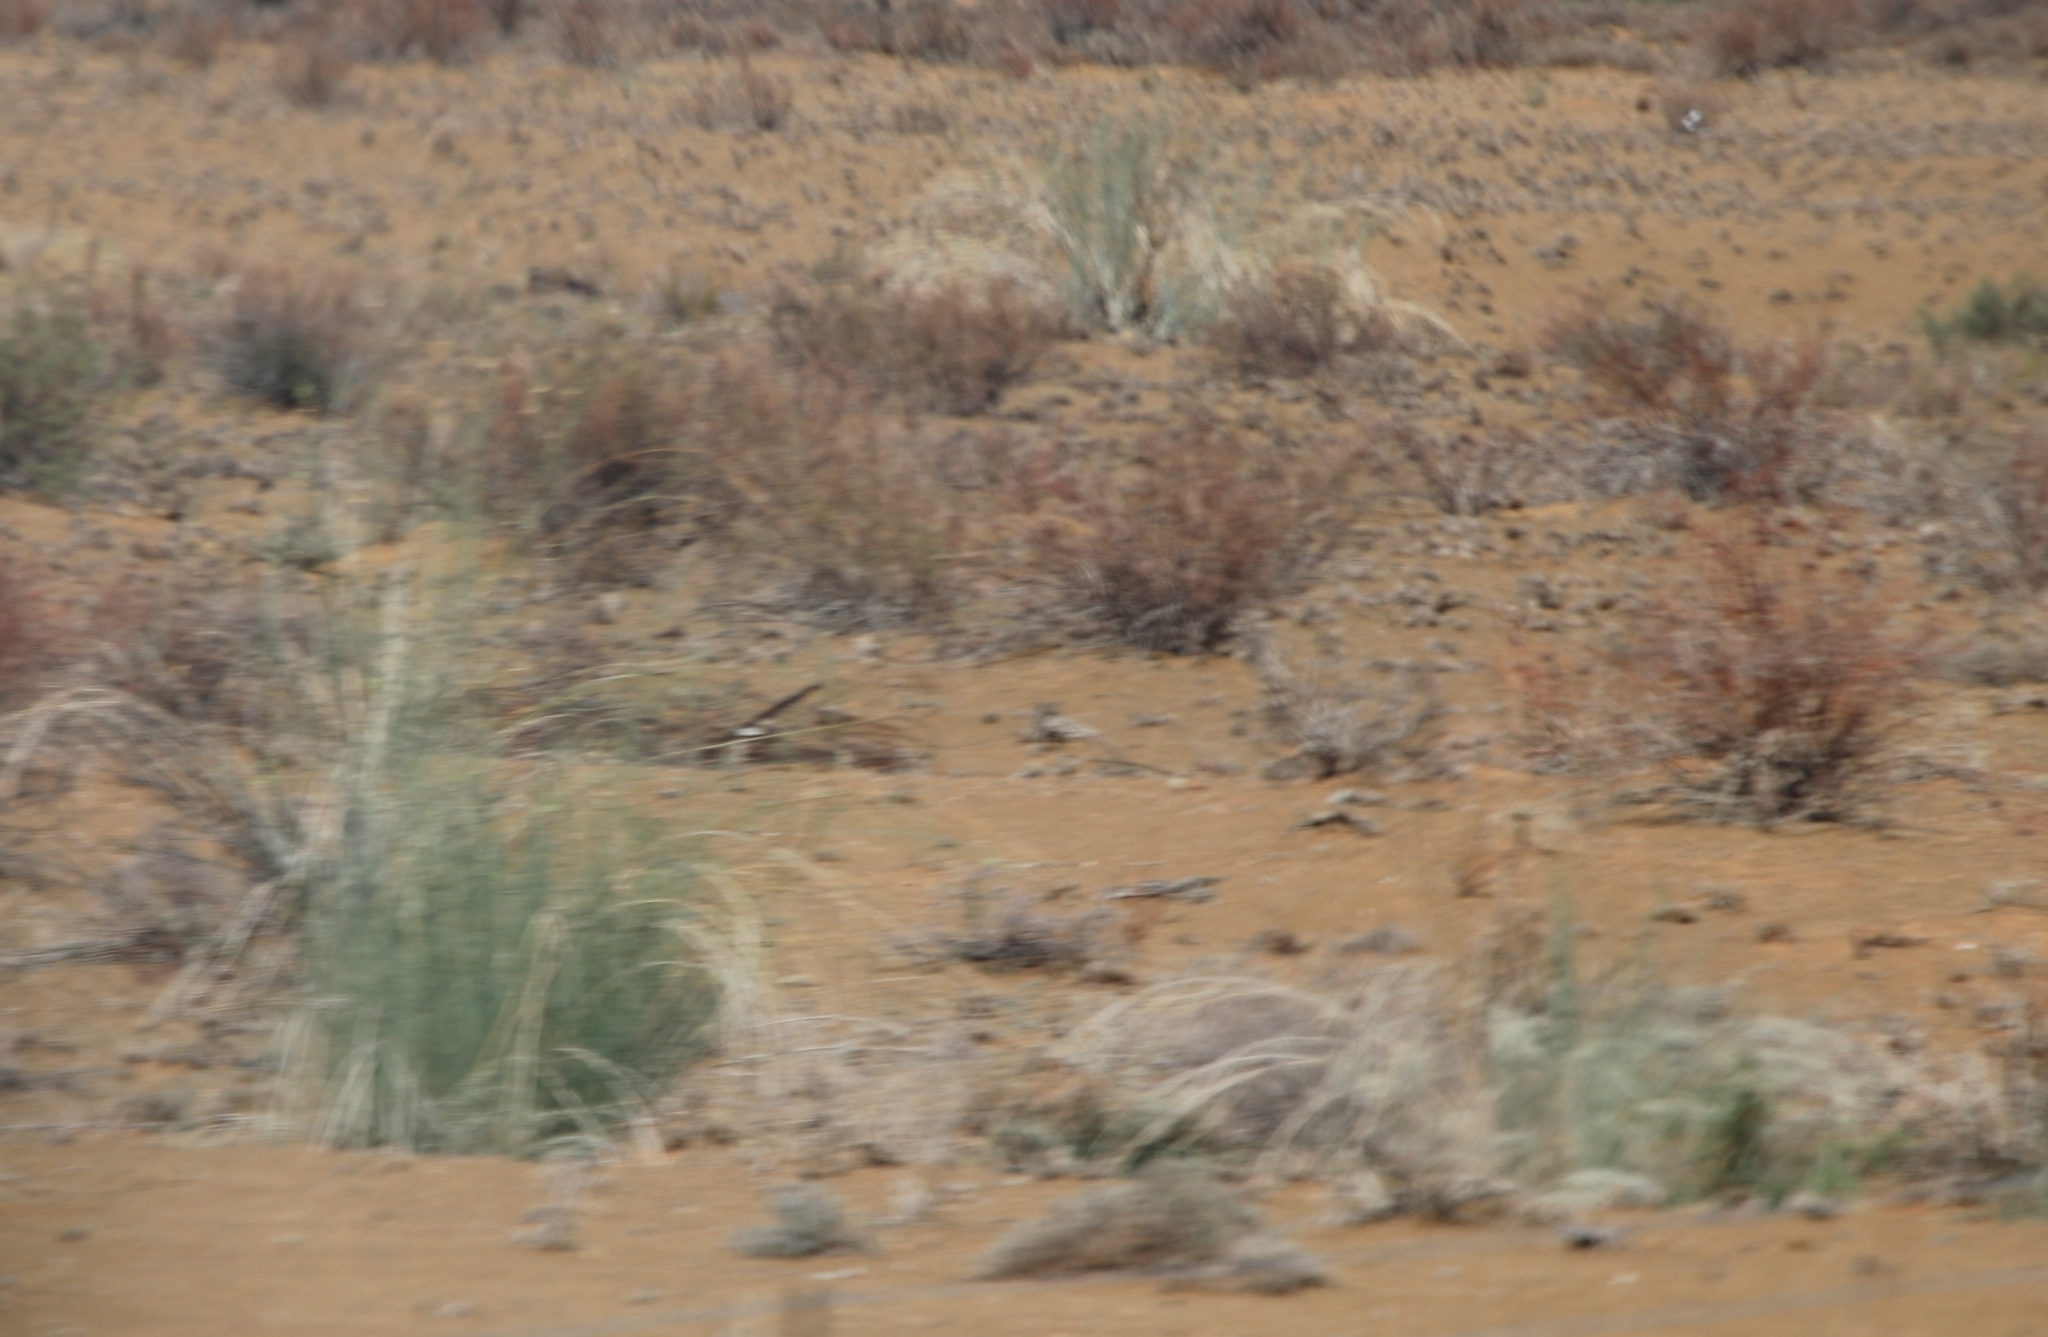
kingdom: Plantae
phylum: Tracheophyta
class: Magnoliopsida
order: Gentianales
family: Apocynaceae
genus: Gomphocarpus
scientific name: Gomphocarpus filiformis
